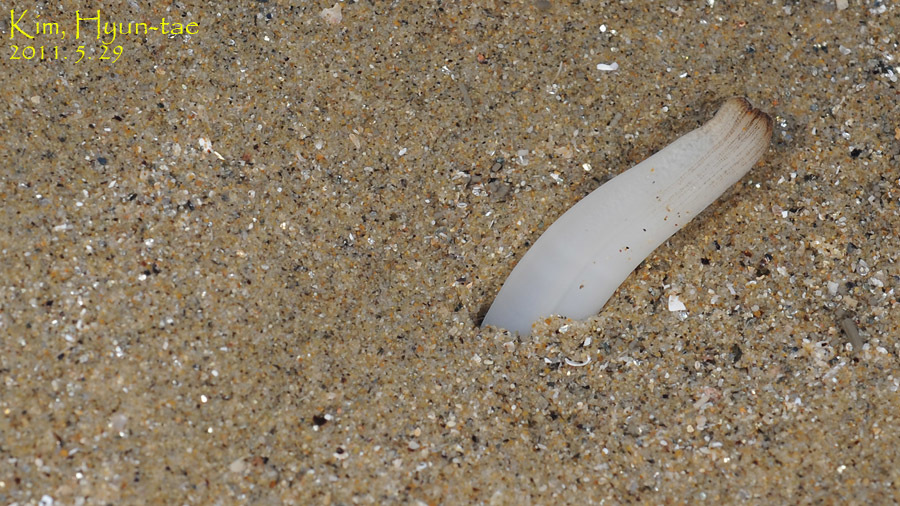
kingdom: Animalia
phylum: Mollusca
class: Bivalvia
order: Adapedonta
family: Solenidae
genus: Solen
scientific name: Solen strictus
